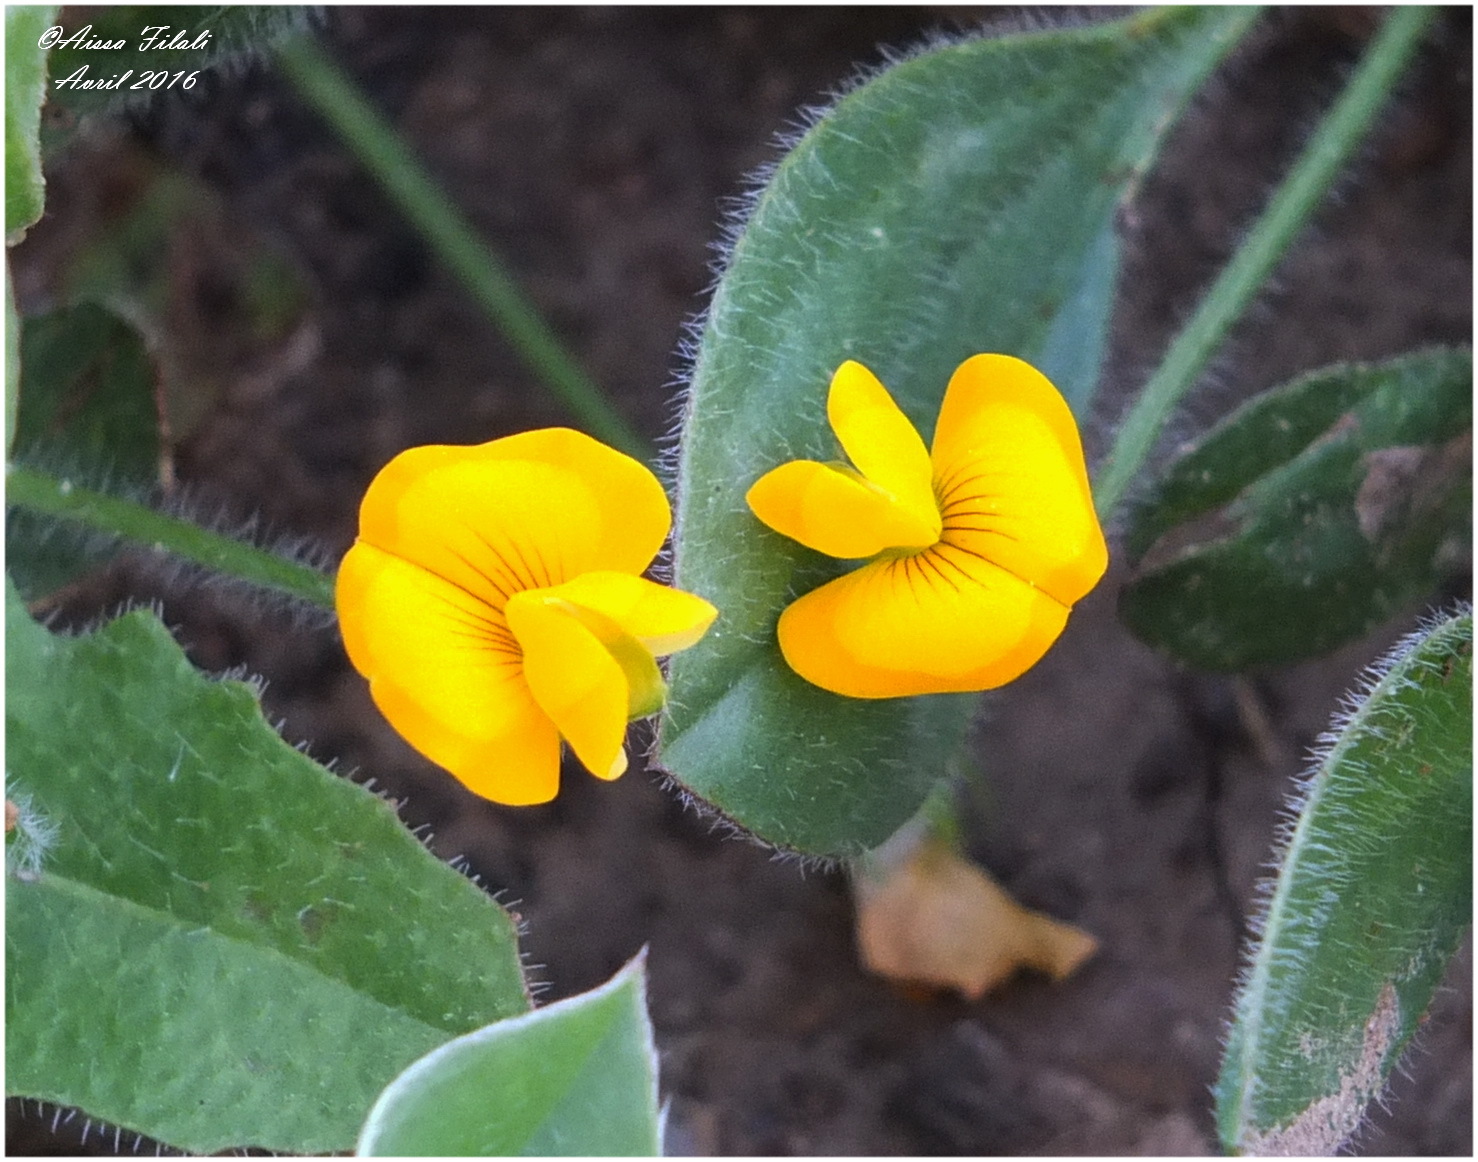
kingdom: Plantae
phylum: Tracheophyta
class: Magnoliopsida
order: Fabales
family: Fabaceae
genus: Scorpiurus
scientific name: Scorpiurus vermiculatus
